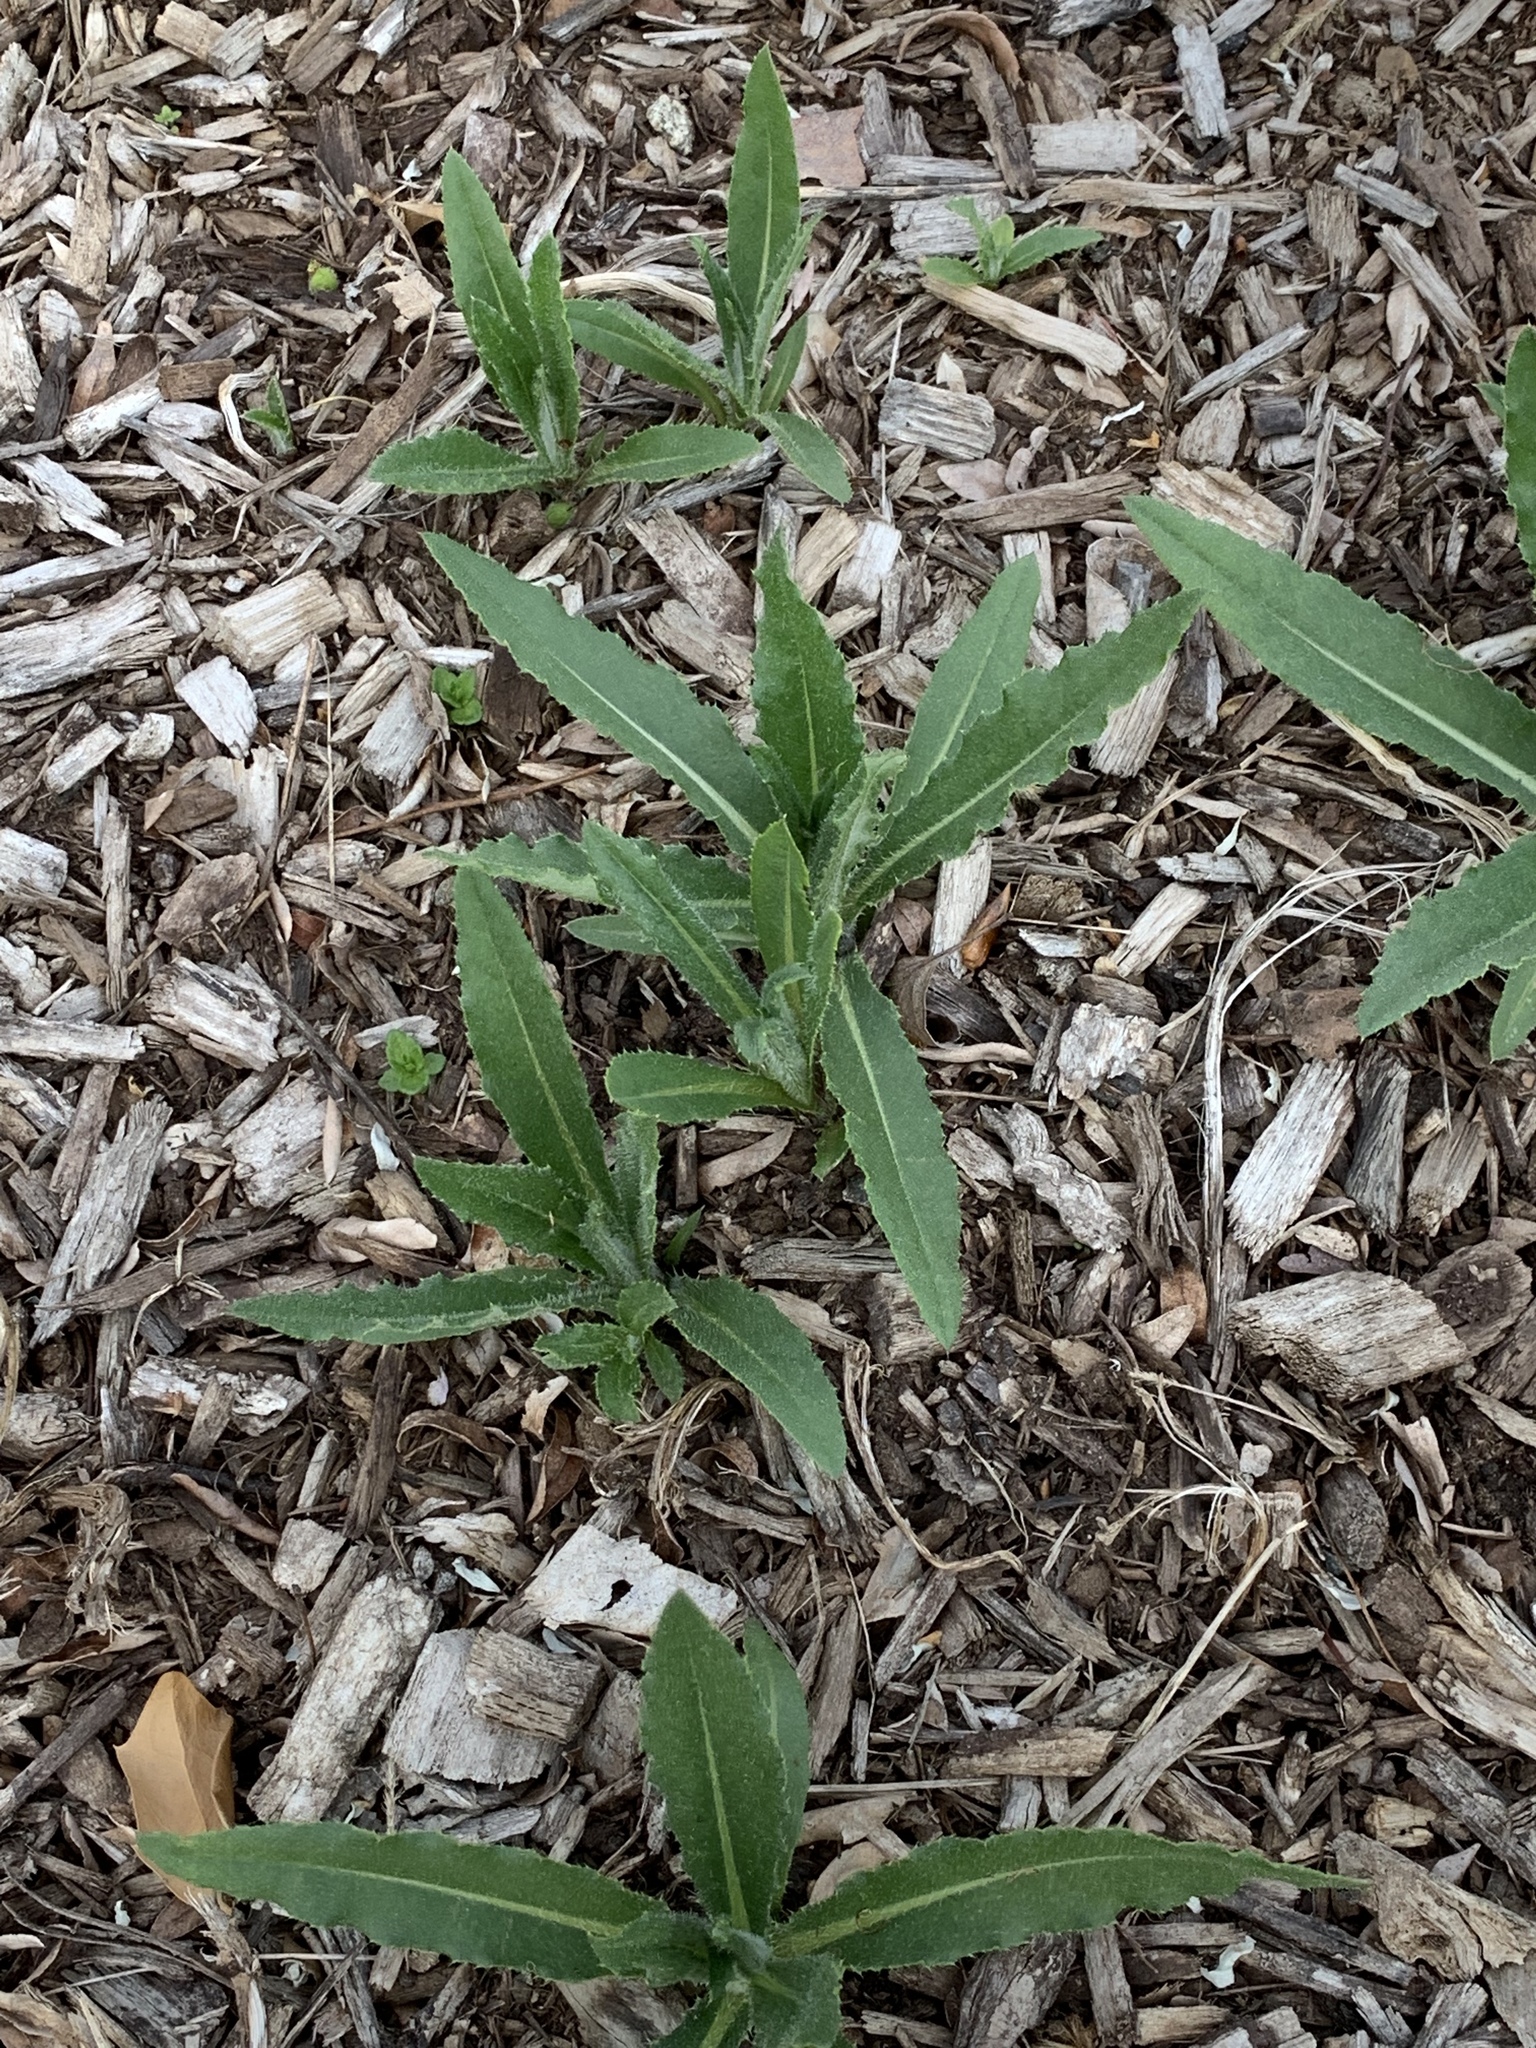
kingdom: Plantae
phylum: Tracheophyta
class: Magnoliopsida
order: Asterales
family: Asteraceae
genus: Cirsium
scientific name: Cirsium arvense
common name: Creeping thistle
